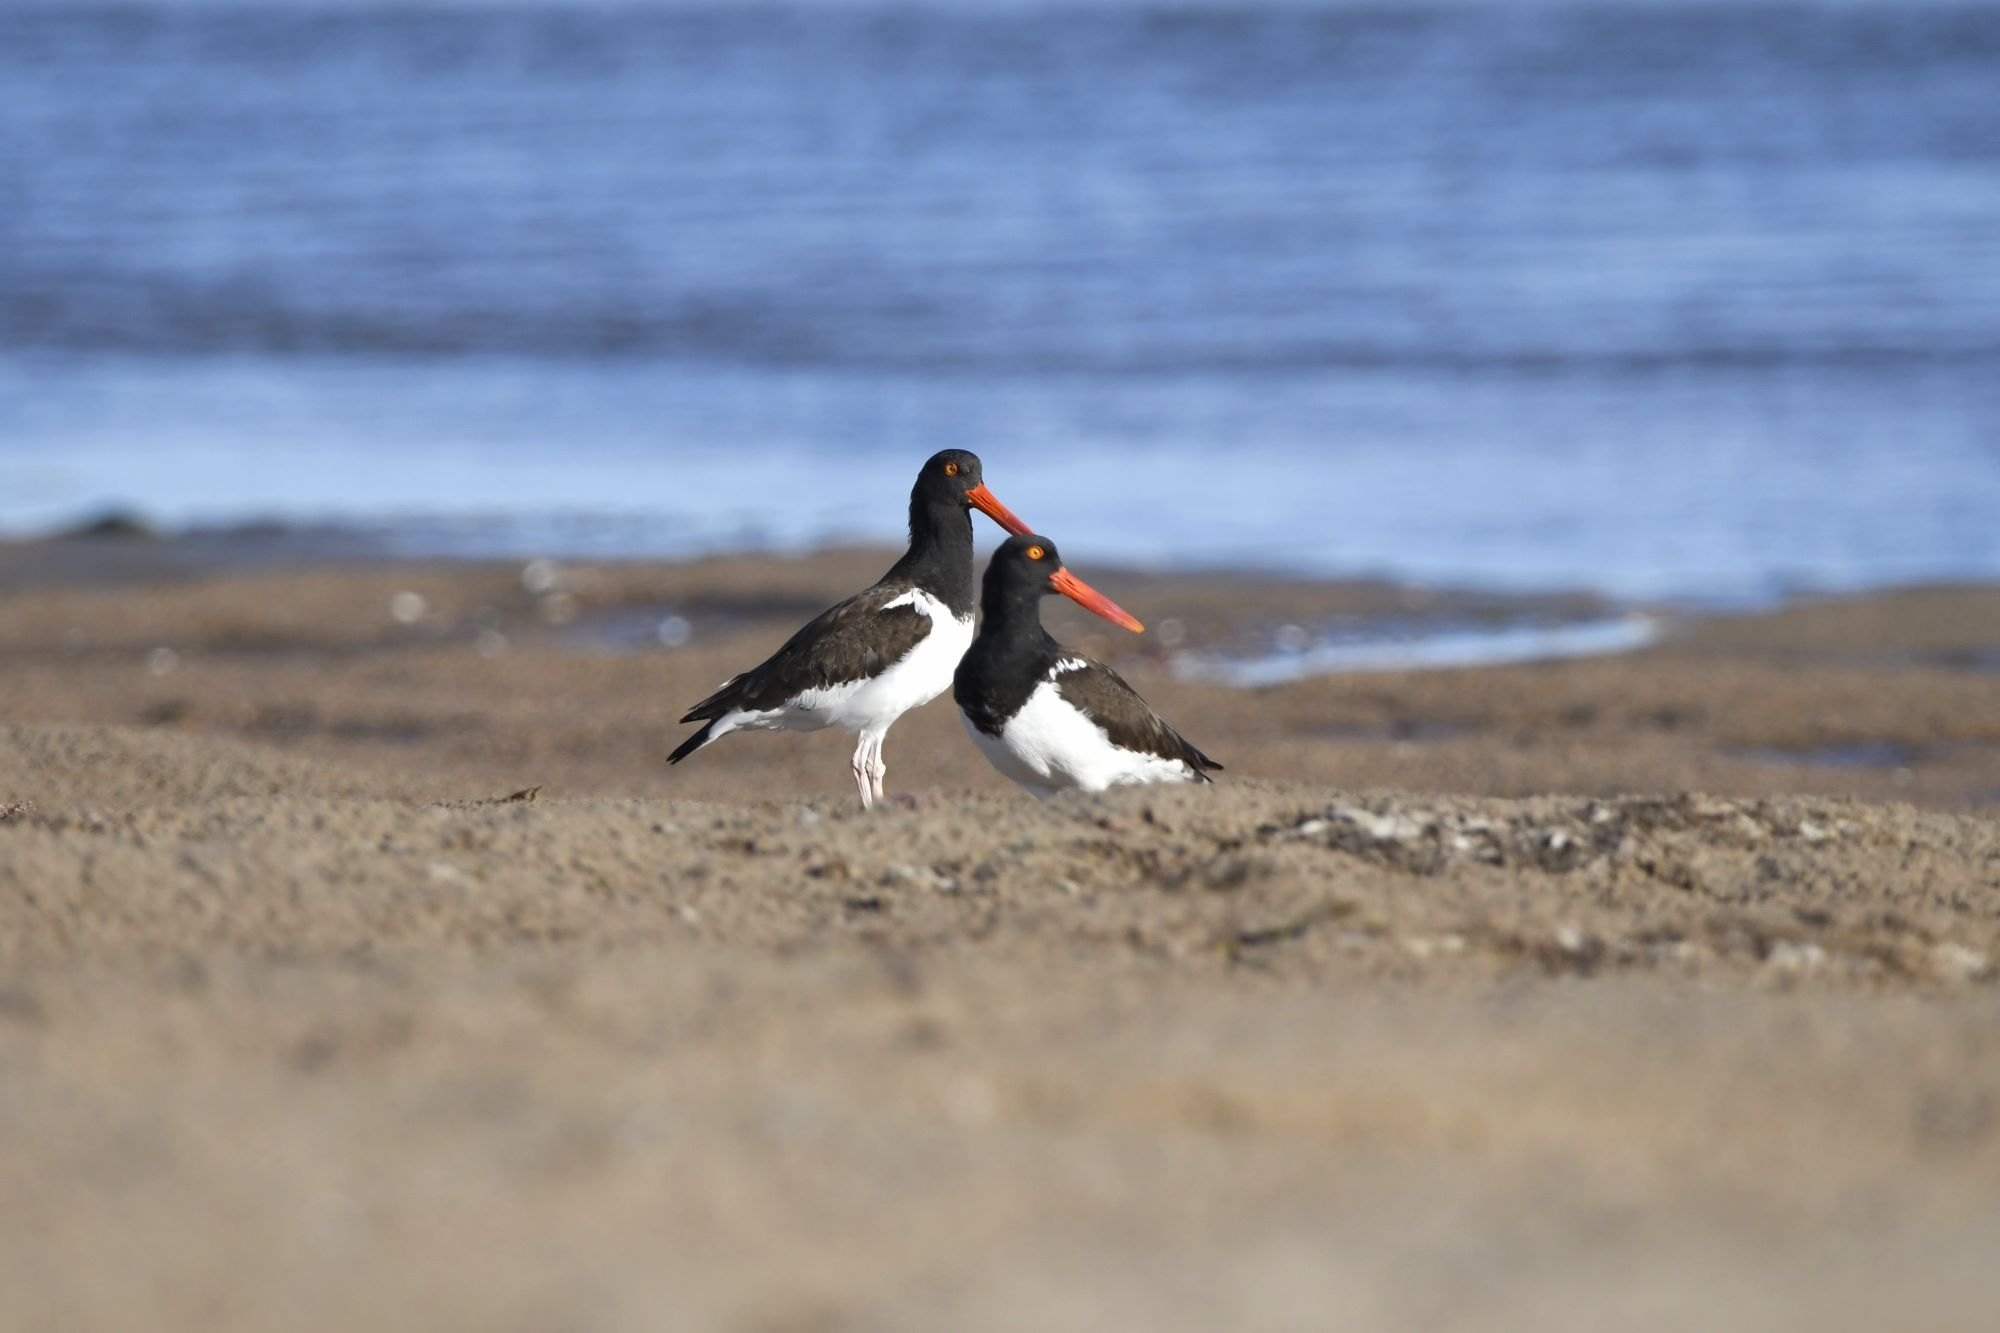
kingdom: Animalia
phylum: Chordata
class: Aves
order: Charadriiformes
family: Haematopodidae
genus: Haematopus
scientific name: Haematopus palliatus
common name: American oystercatcher
